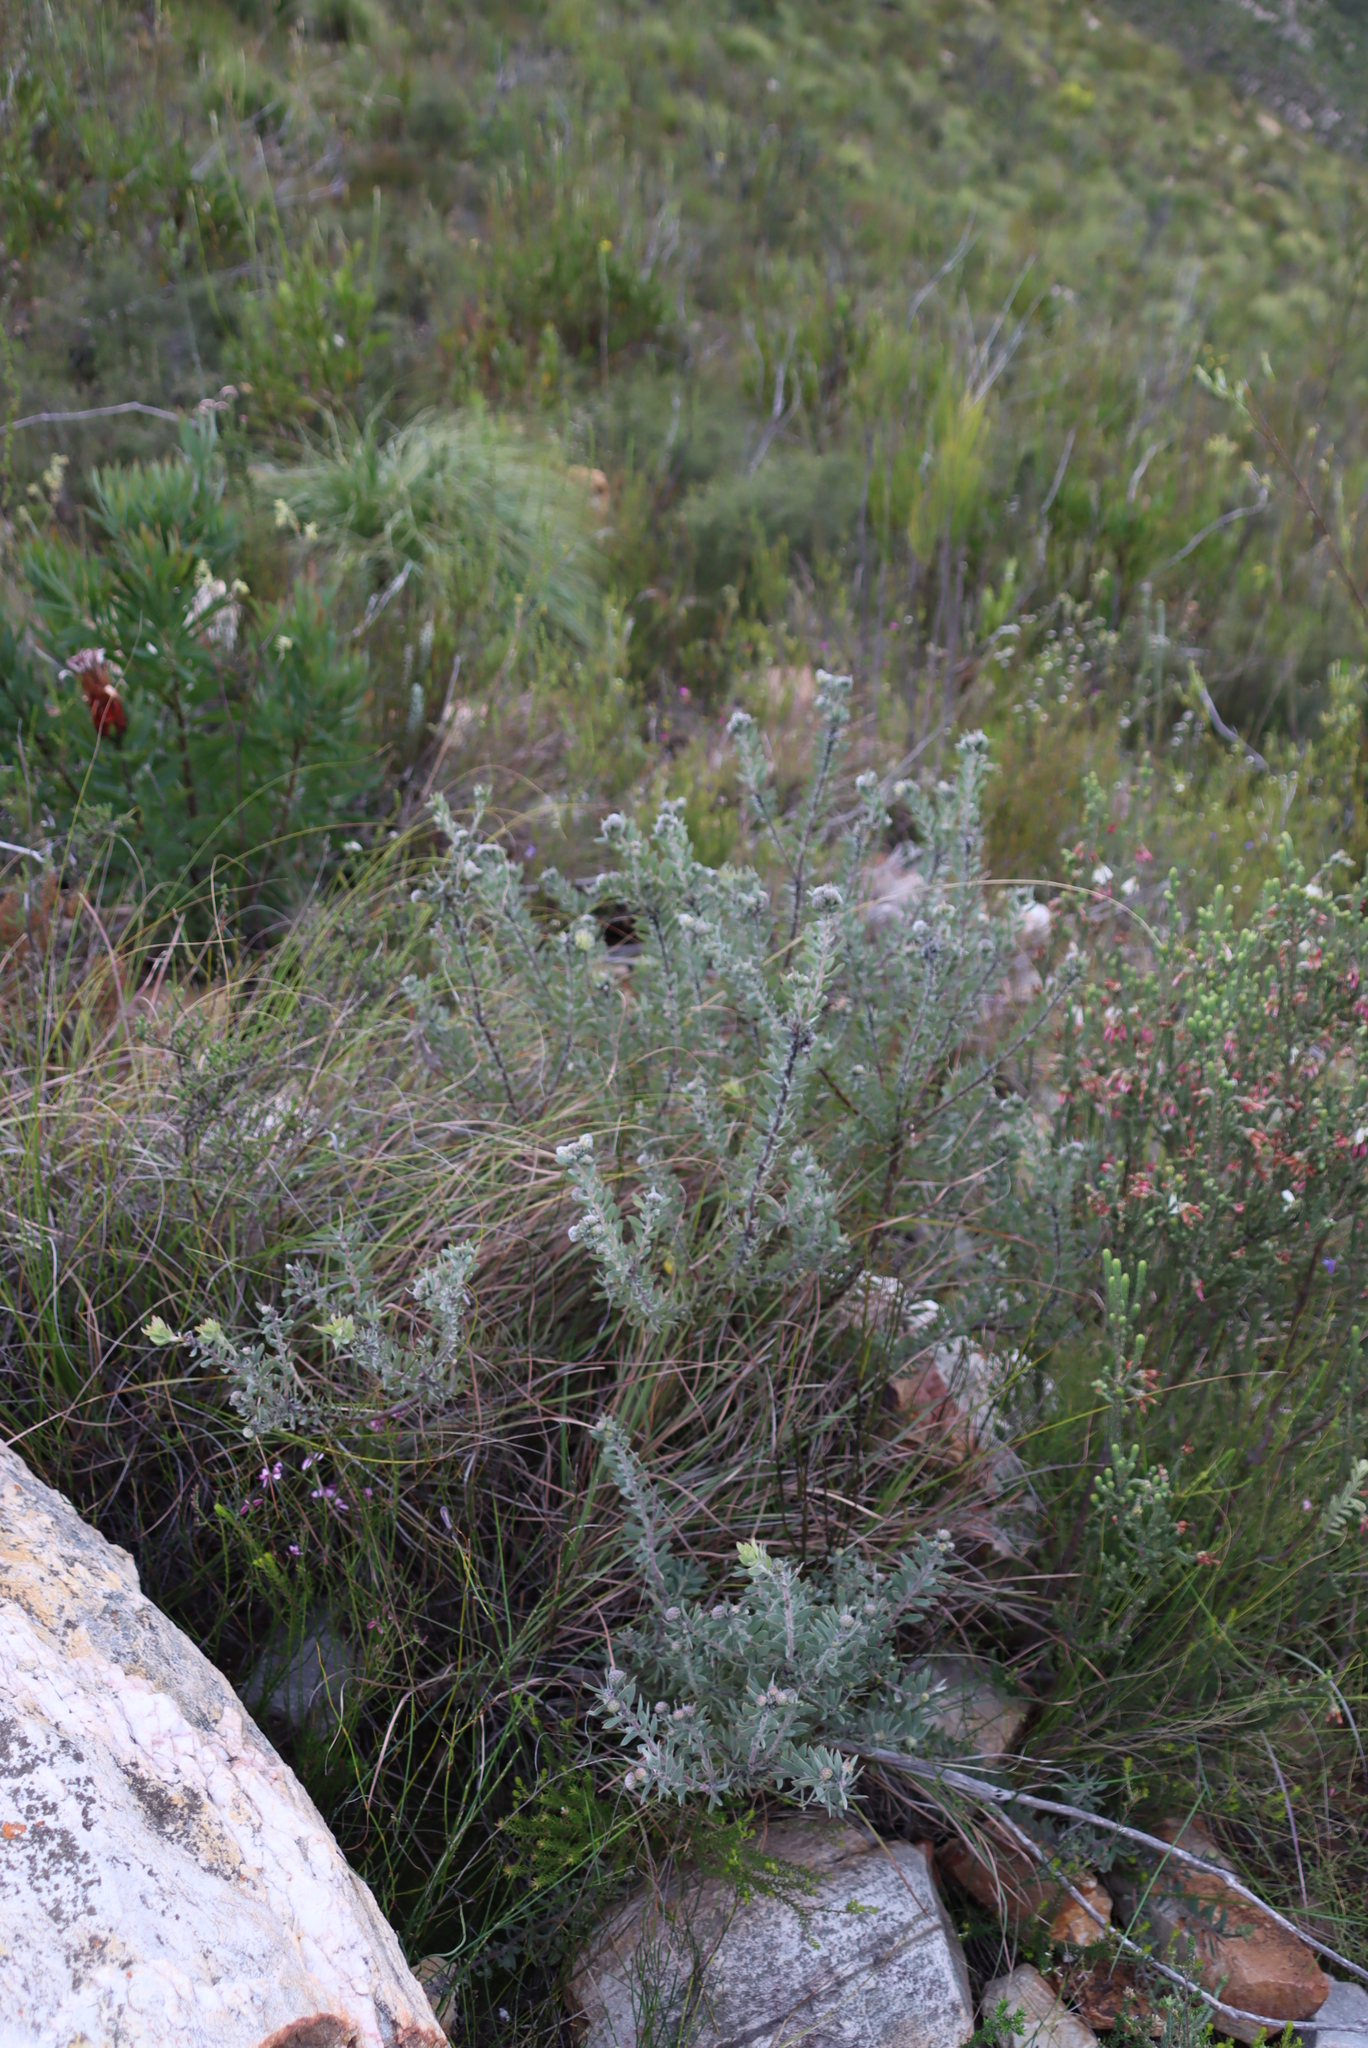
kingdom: Plantae
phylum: Tracheophyta
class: Magnoliopsida
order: Proteales
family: Proteaceae
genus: Leucospermum
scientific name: Leucospermum wittebergense
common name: Swartberg pincushion
